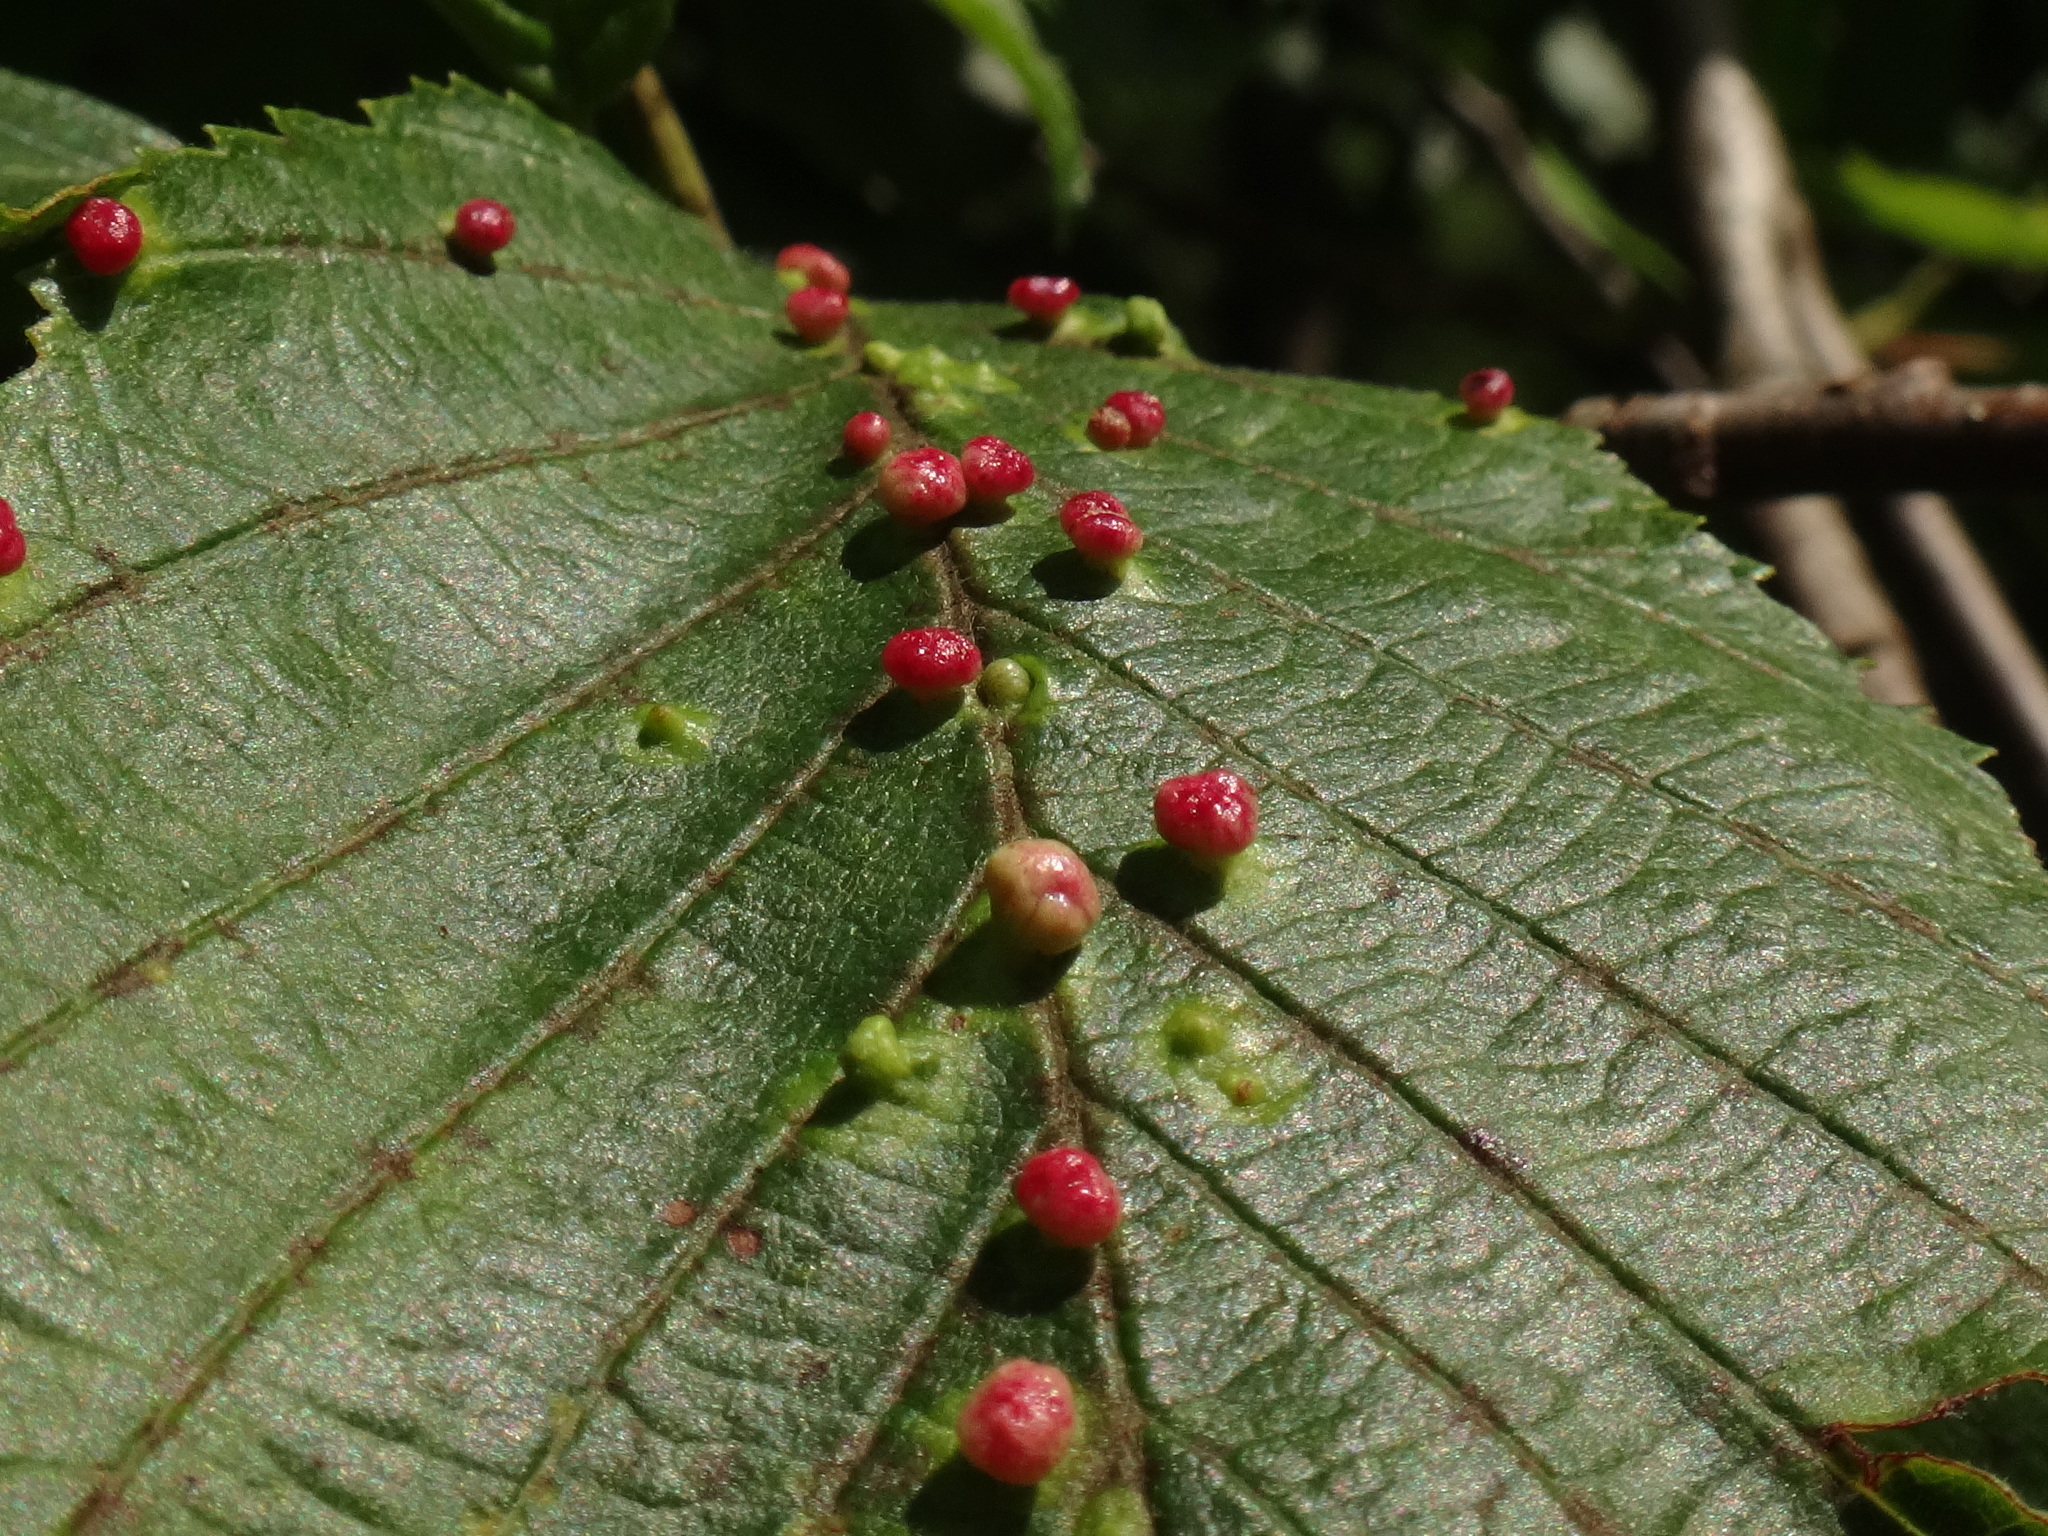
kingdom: Animalia
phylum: Arthropoda
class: Arachnida
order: Trombidiformes
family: Eriophyidae
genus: Eriophyes
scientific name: Eriophyes laevis
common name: Alder leaf gall mite
